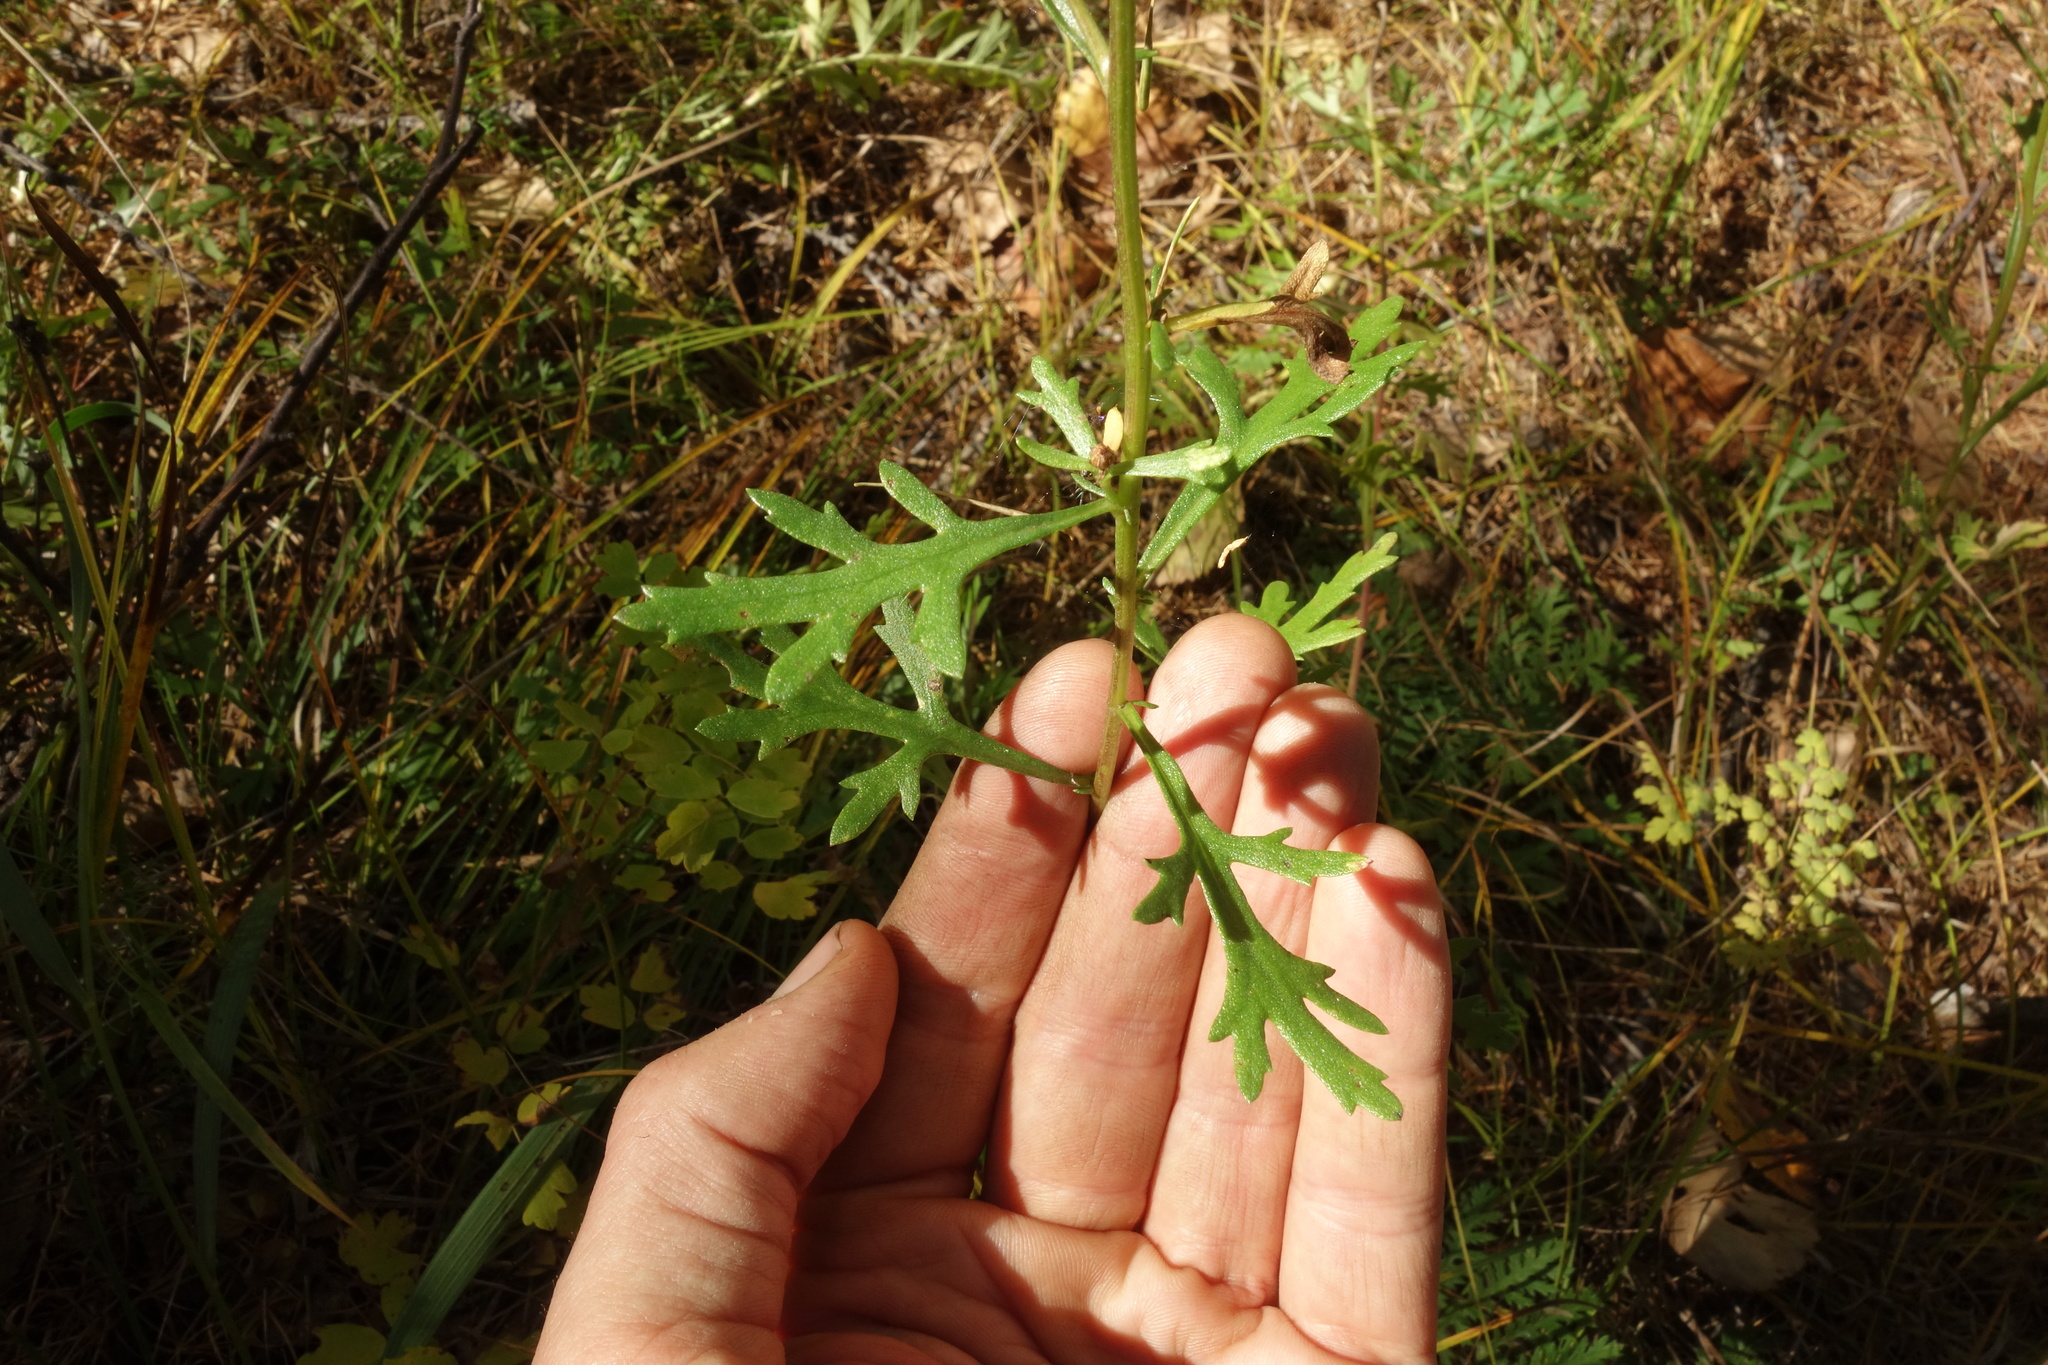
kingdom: Plantae
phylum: Tracheophyta
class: Magnoliopsida
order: Asterales
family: Asteraceae
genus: Chrysanthemum
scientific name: Chrysanthemum zawadzkii
